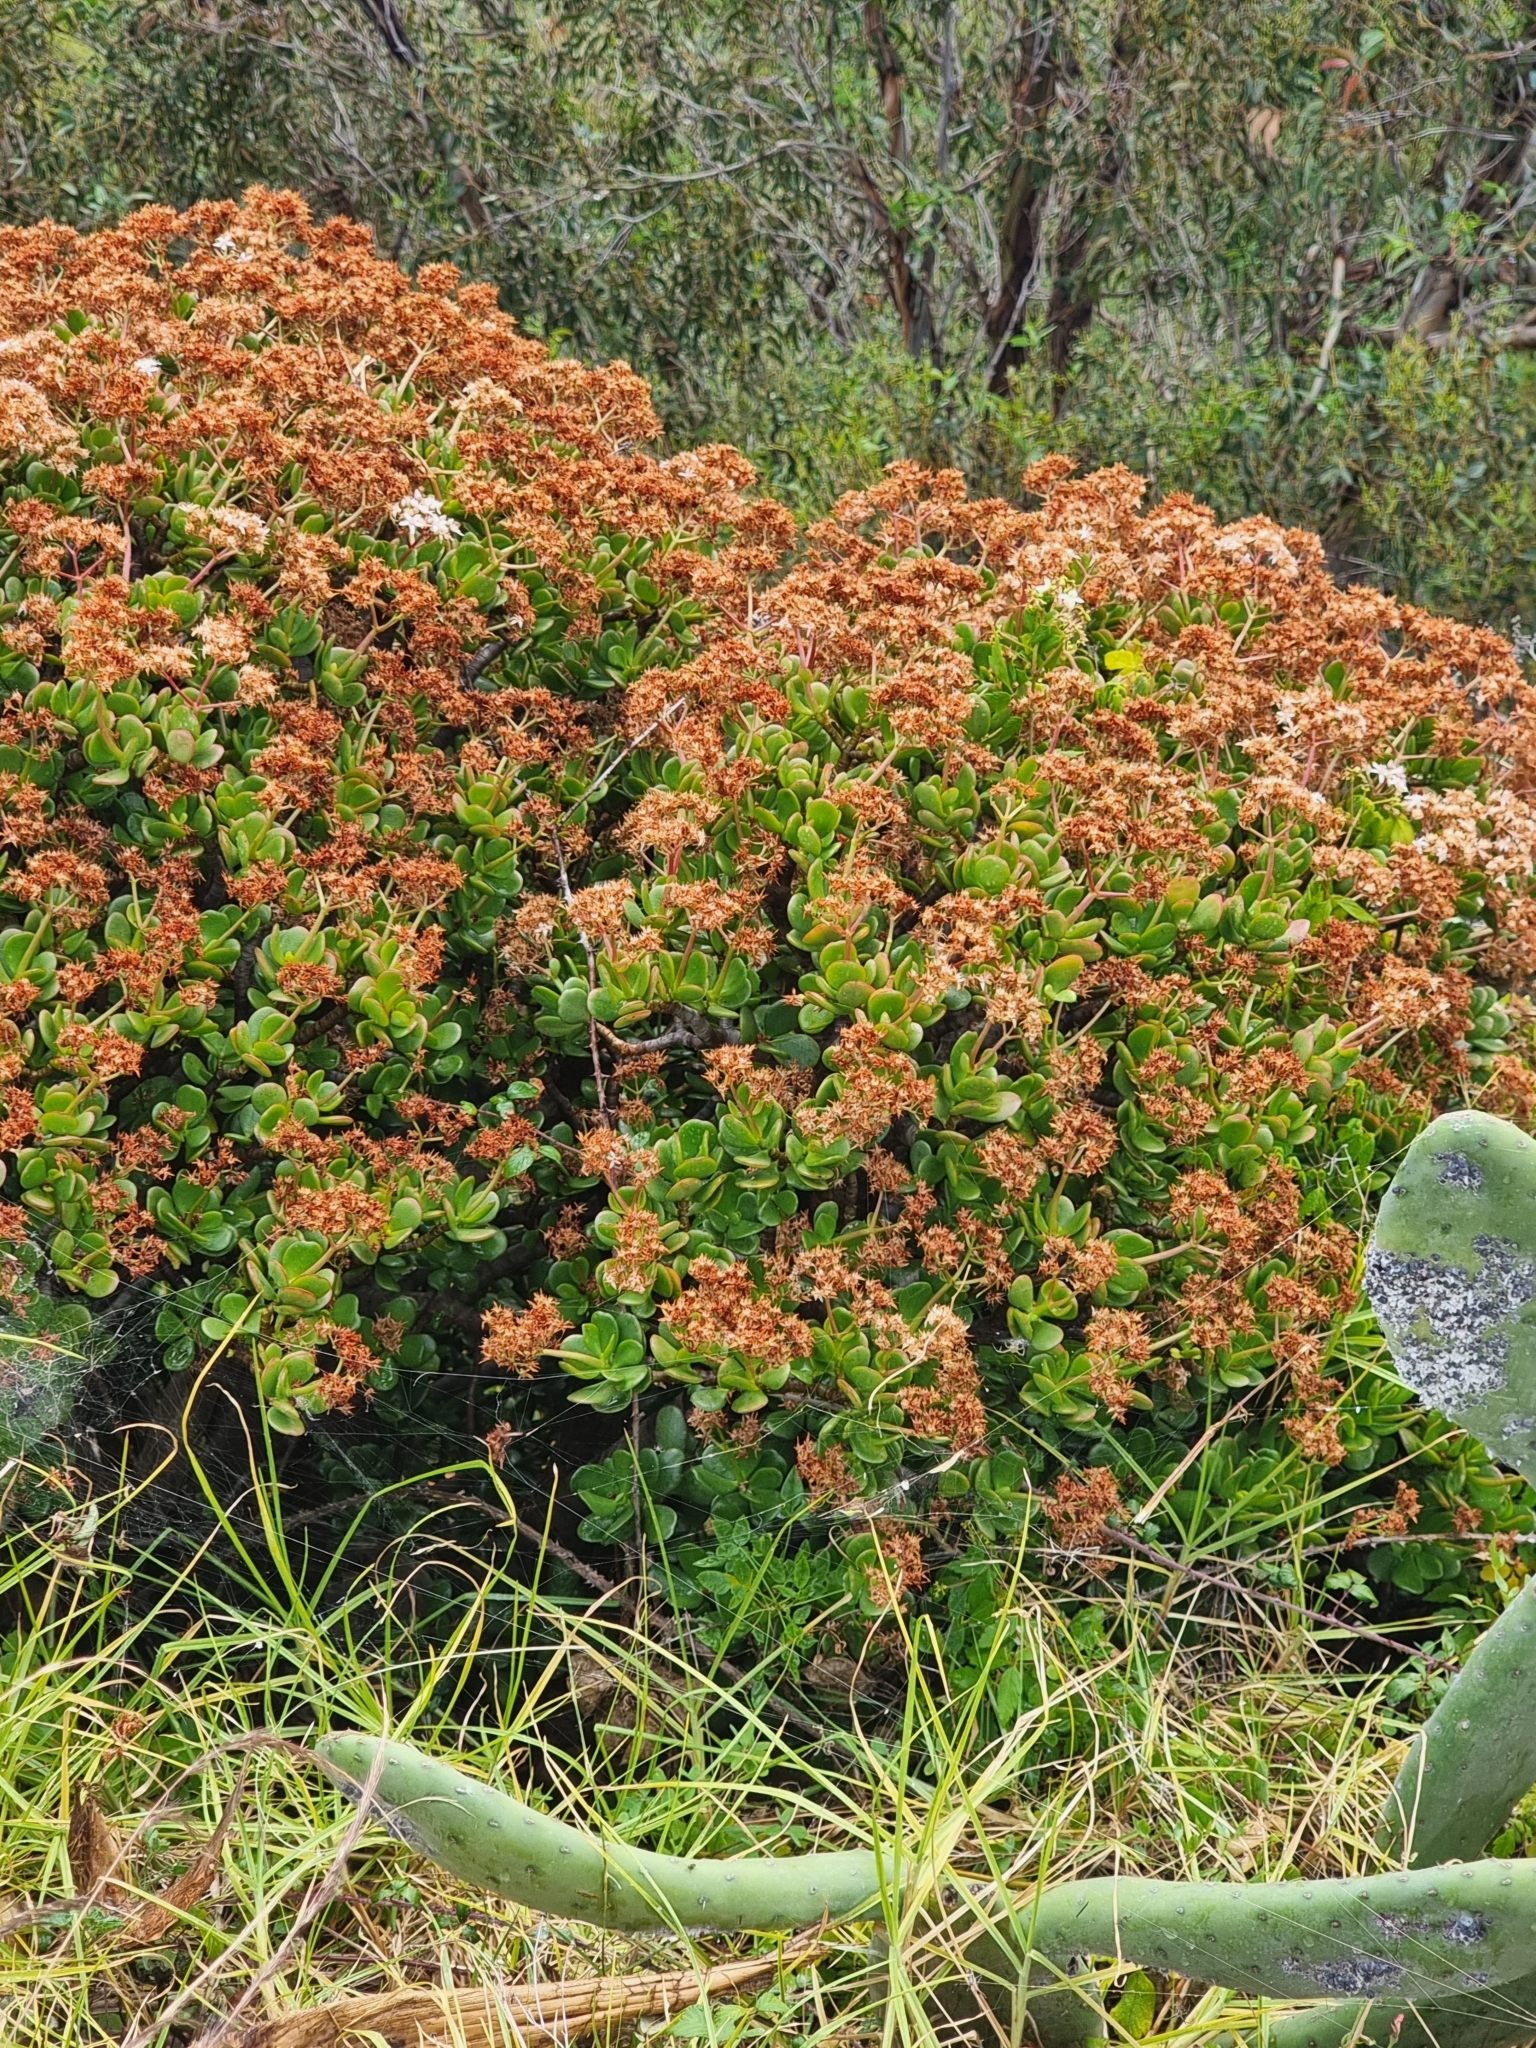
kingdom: Plantae
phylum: Tracheophyta
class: Magnoliopsida
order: Saxifragales
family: Crassulaceae
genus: Crassula
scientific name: Crassula ovata
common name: Jade plant
